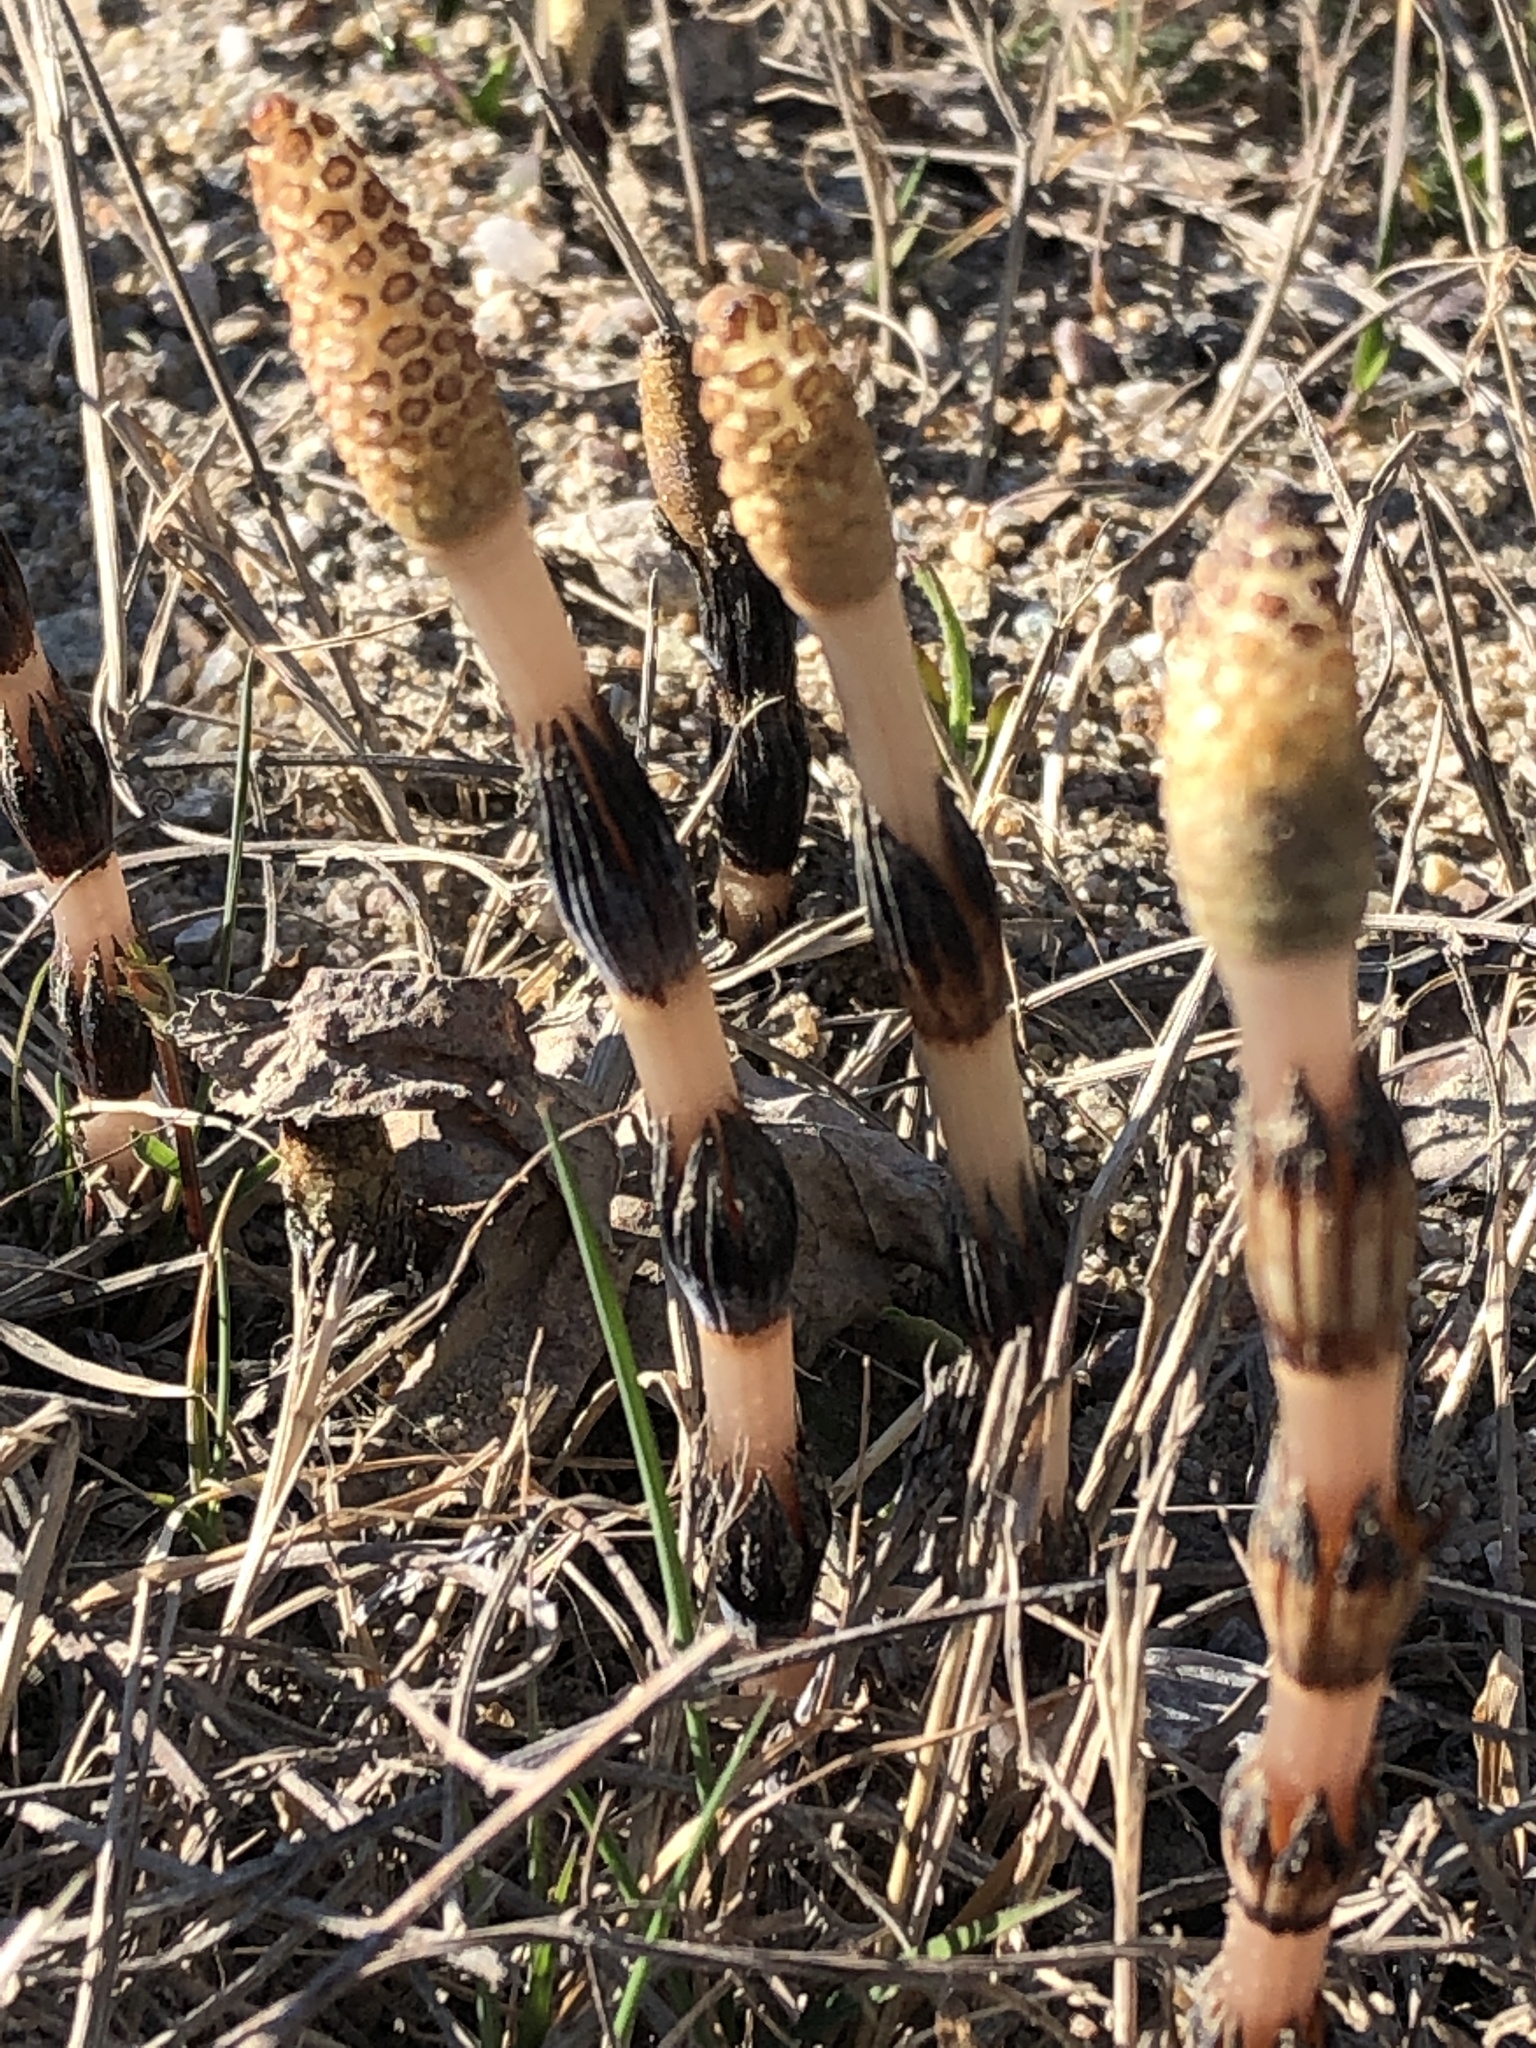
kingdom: Plantae
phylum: Tracheophyta
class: Polypodiopsida
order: Equisetales
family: Equisetaceae
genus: Equisetum
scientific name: Equisetum arvense
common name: Field horsetail
